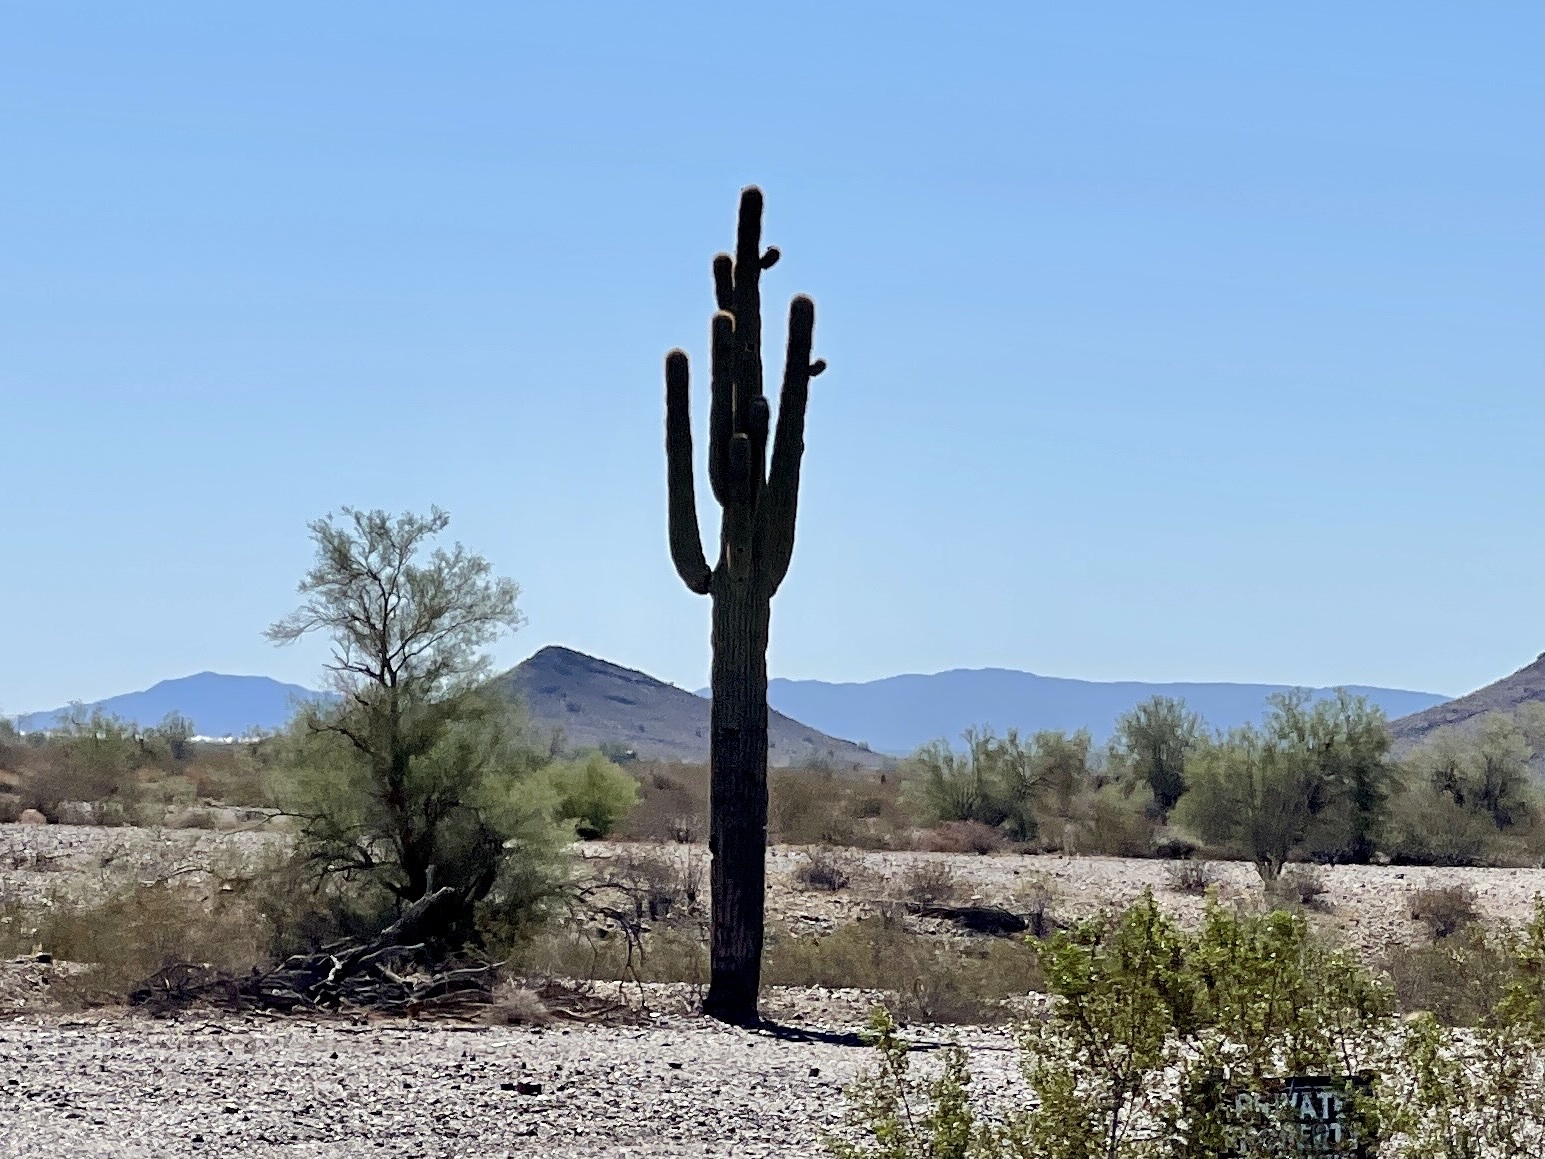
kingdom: Plantae
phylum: Tracheophyta
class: Magnoliopsida
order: Caryophyllales
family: Cactaceae
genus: Carnegiea
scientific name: Carnegiea gigantea
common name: Saguaro
